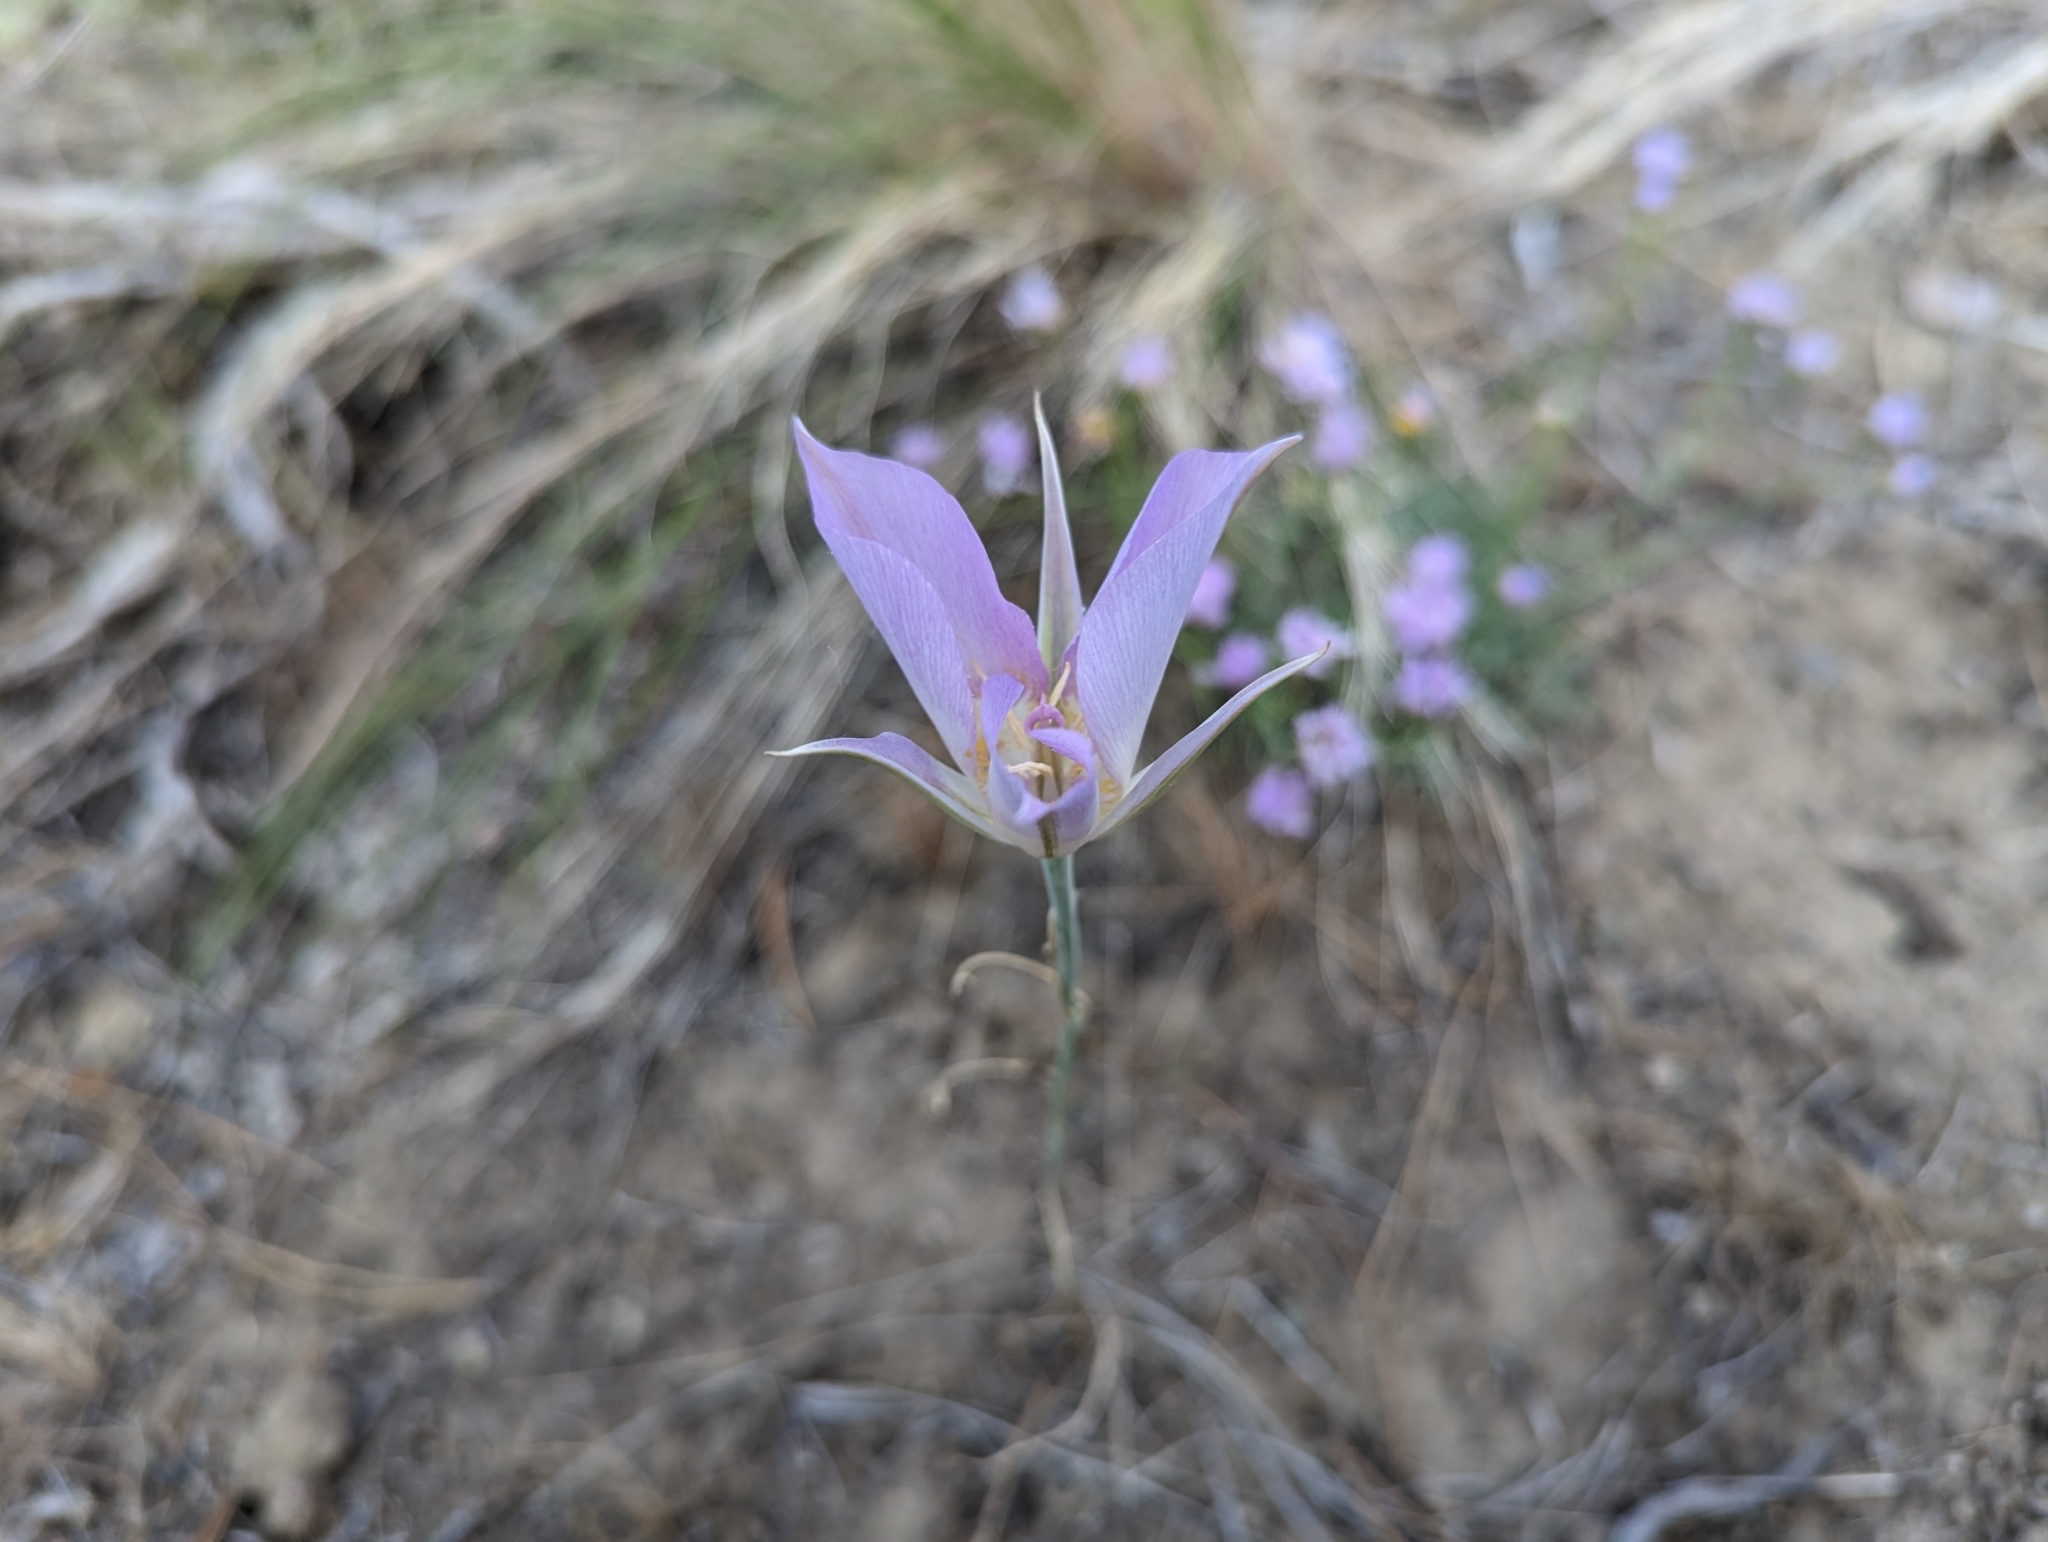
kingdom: Plantae
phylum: Tracheophyta
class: Liliopsida
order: Liliales
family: Liliaceae
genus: Calochortus
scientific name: Calochortus macrocarpus
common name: Green-band mariposa lily
